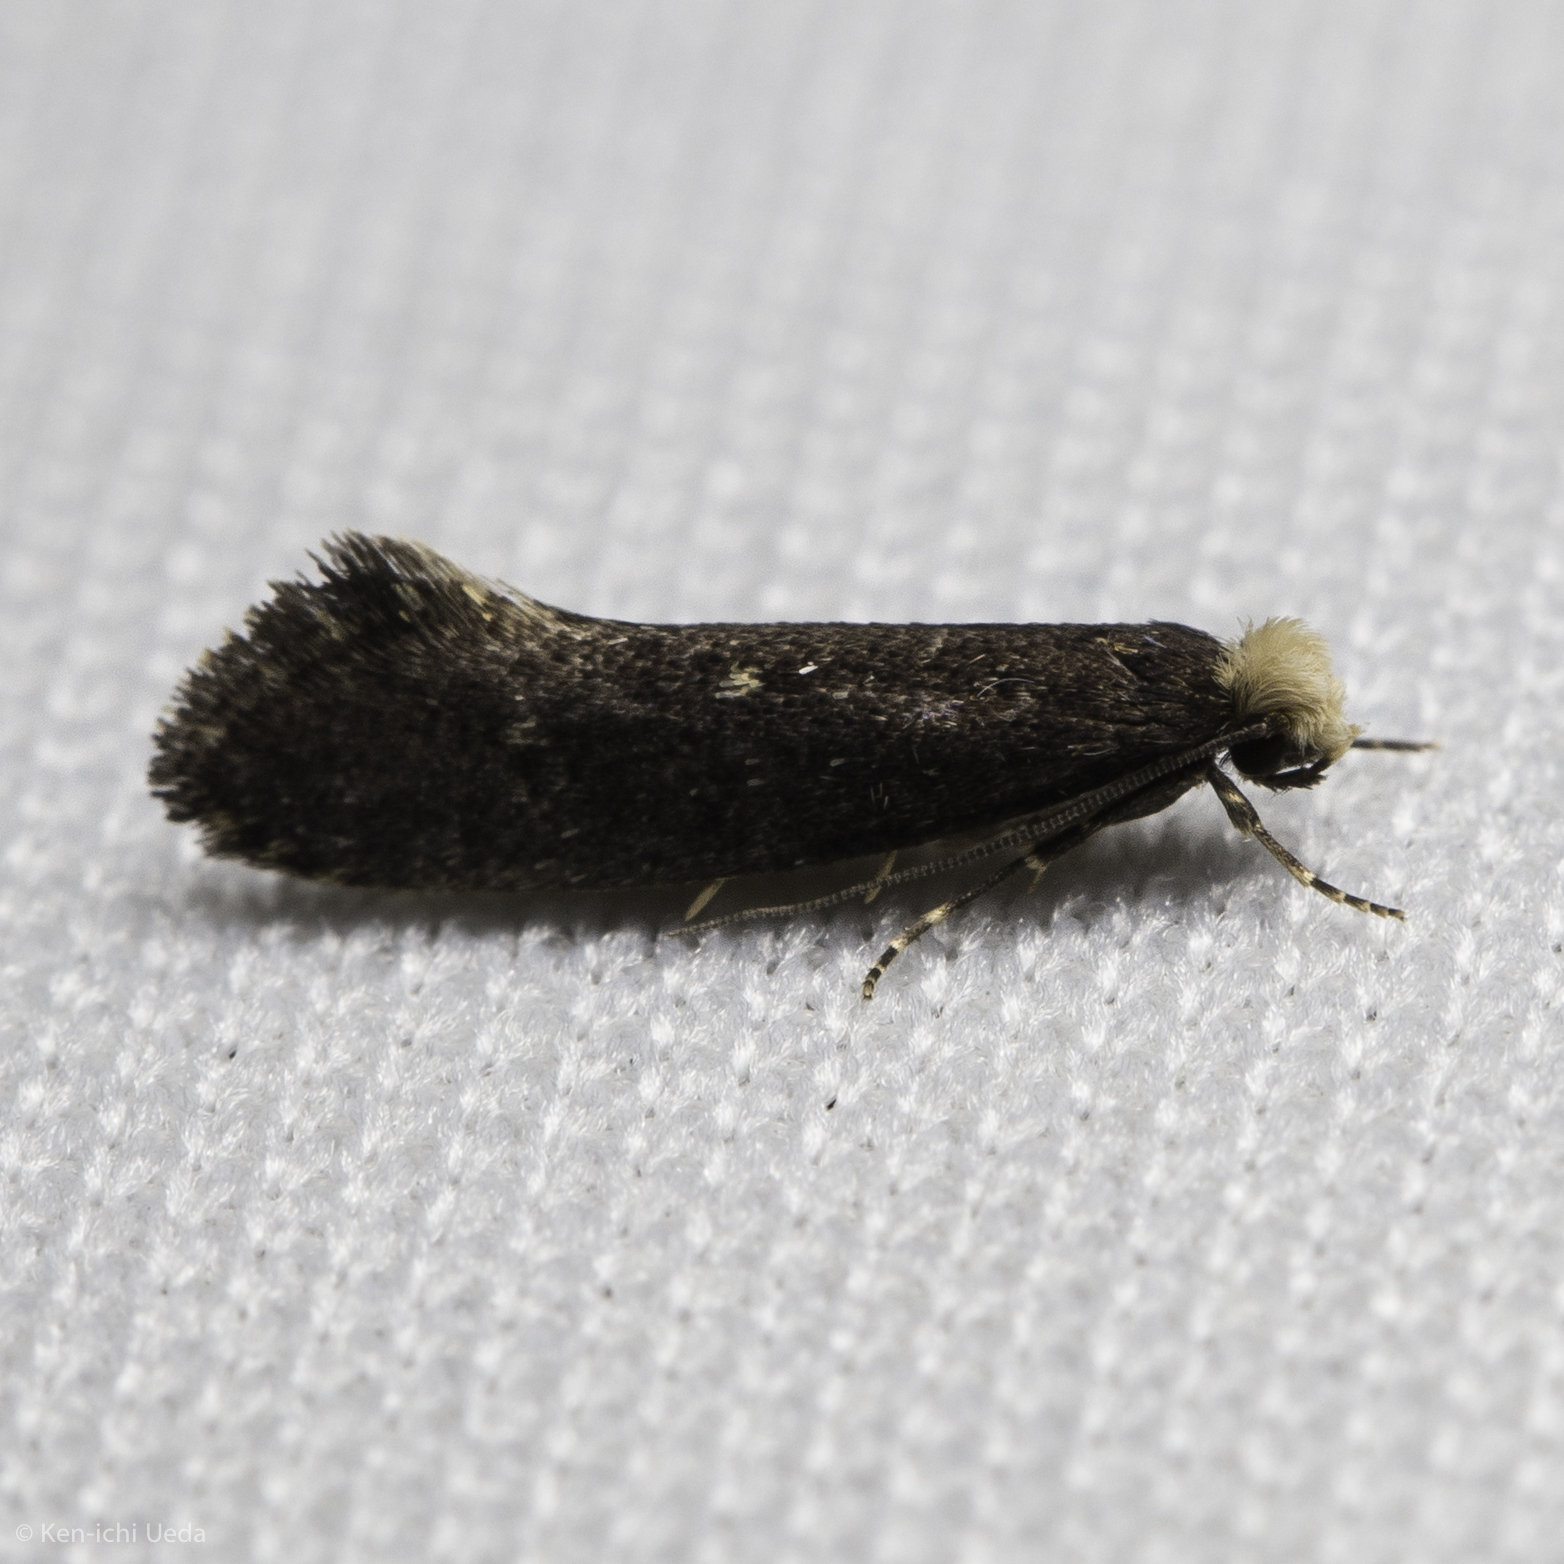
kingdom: Animalia
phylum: Arthropoda
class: Insecta
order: Lepidoptera
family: Tineidae
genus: Tinea
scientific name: Tinea niveocapitella
